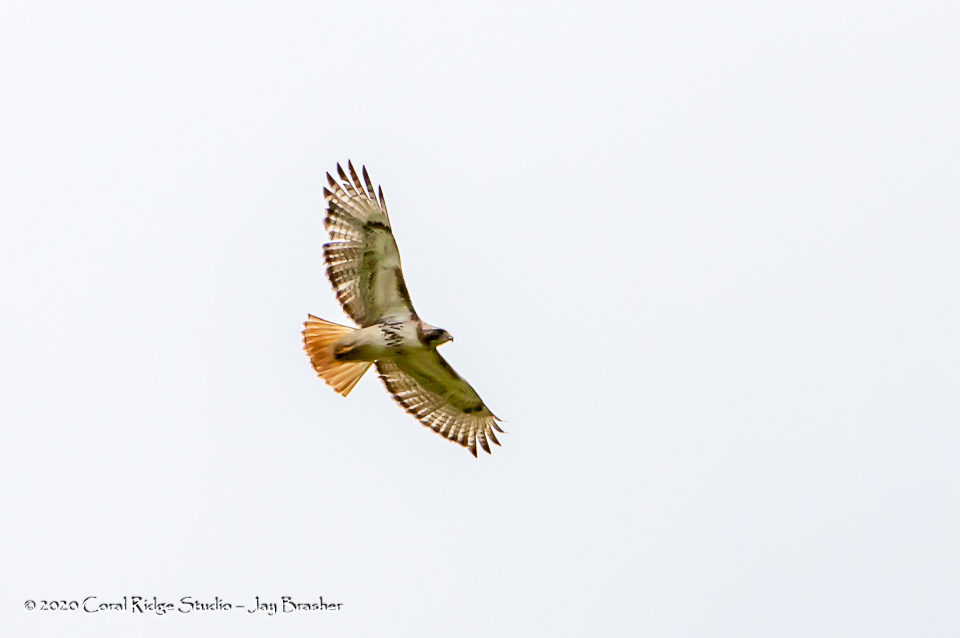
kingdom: Animalia
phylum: Chordata
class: Aves
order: Accipitriformes
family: Accipitridae
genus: Buteo
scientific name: Buteo jamaicensis
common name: Red-tailed hawk
